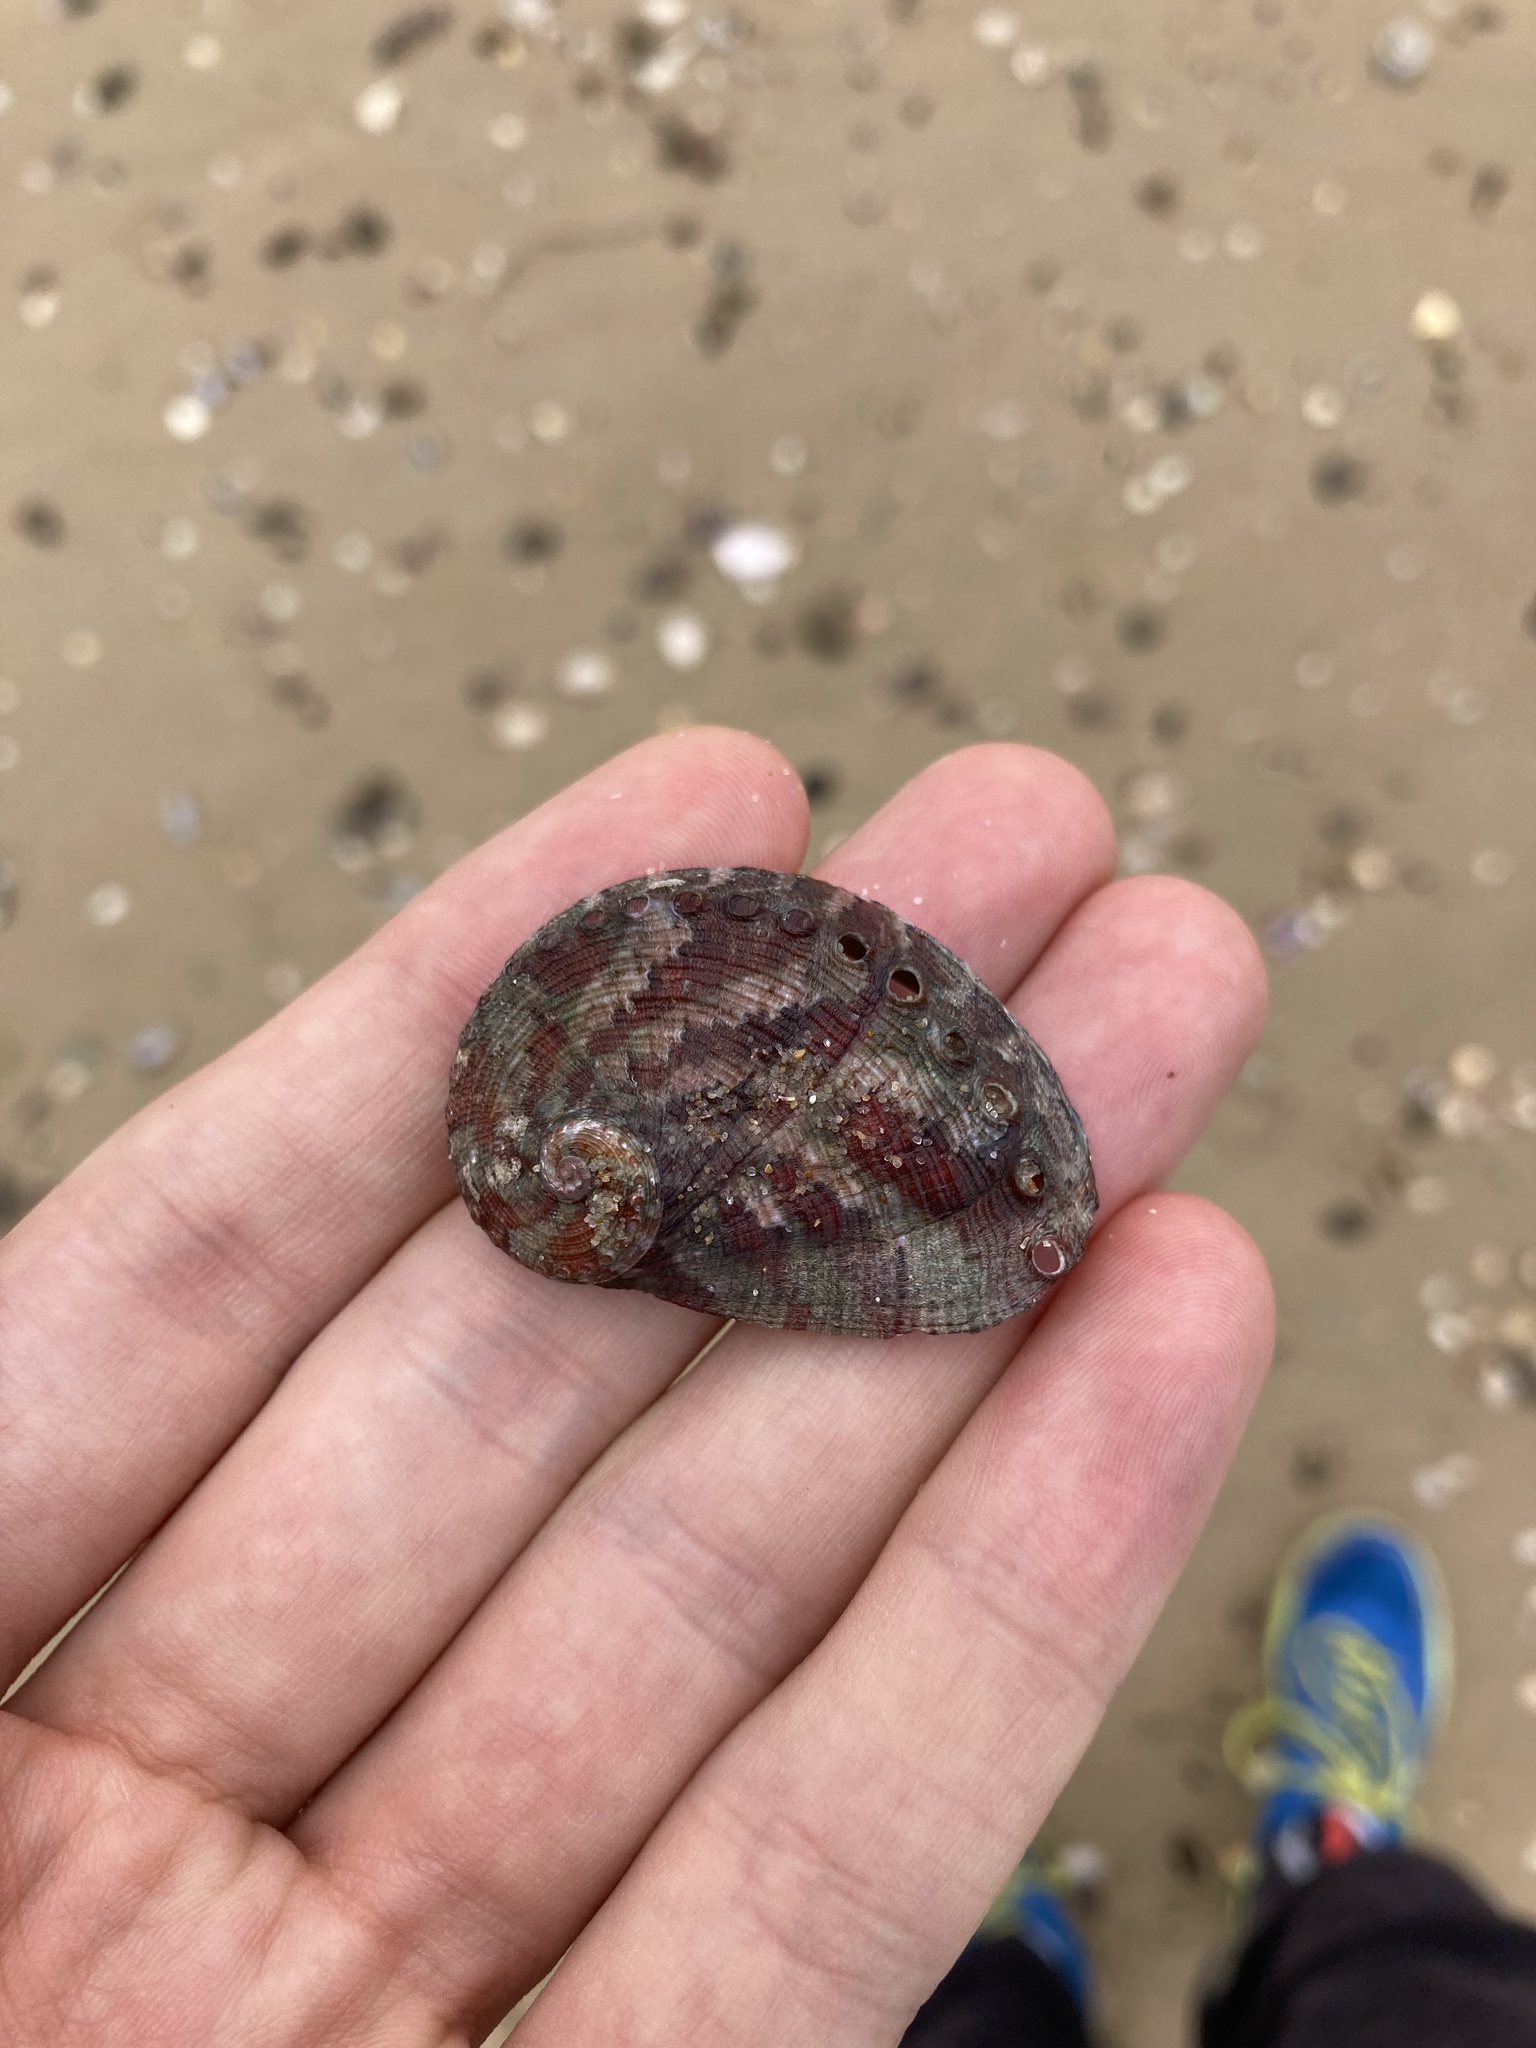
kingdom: Animalia
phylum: Mollusca
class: Gastropoda
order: Lepetellida
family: Haliotidae
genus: Haliotis
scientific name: Haliotis coccoradiata
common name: Reddish-rayed abalone
